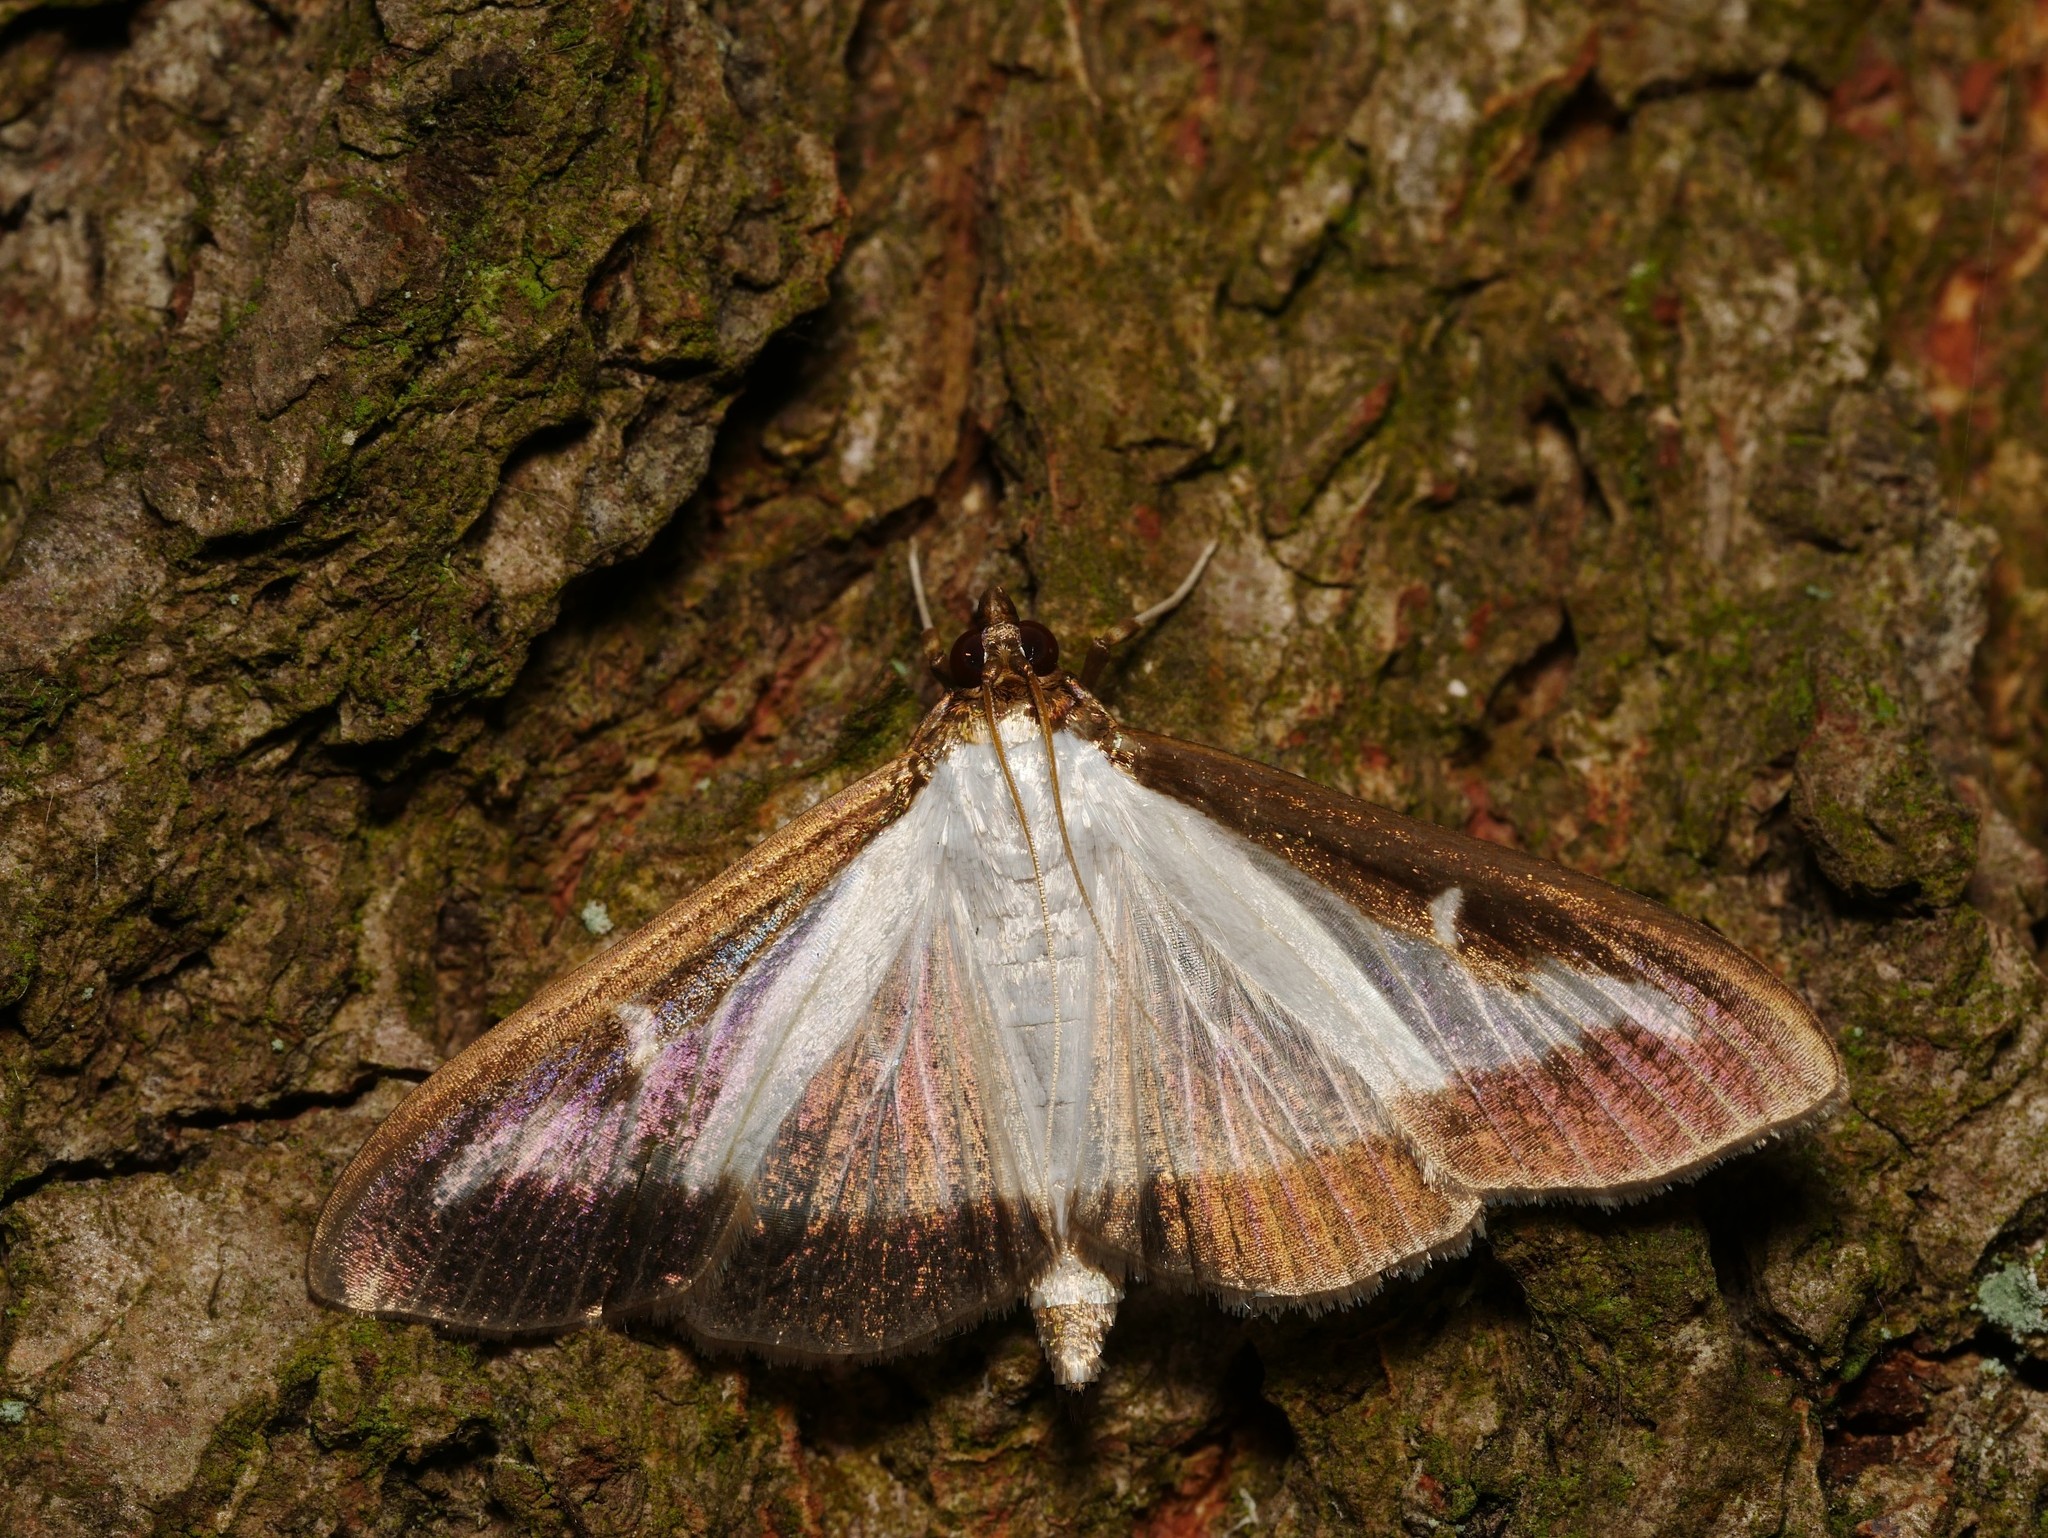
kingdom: Animalia
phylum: Arthropoda
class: Insecta
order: Lepidoptera
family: Crambidae
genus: Cydalima
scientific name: Cydalima perspectalis
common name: Box tree moth
